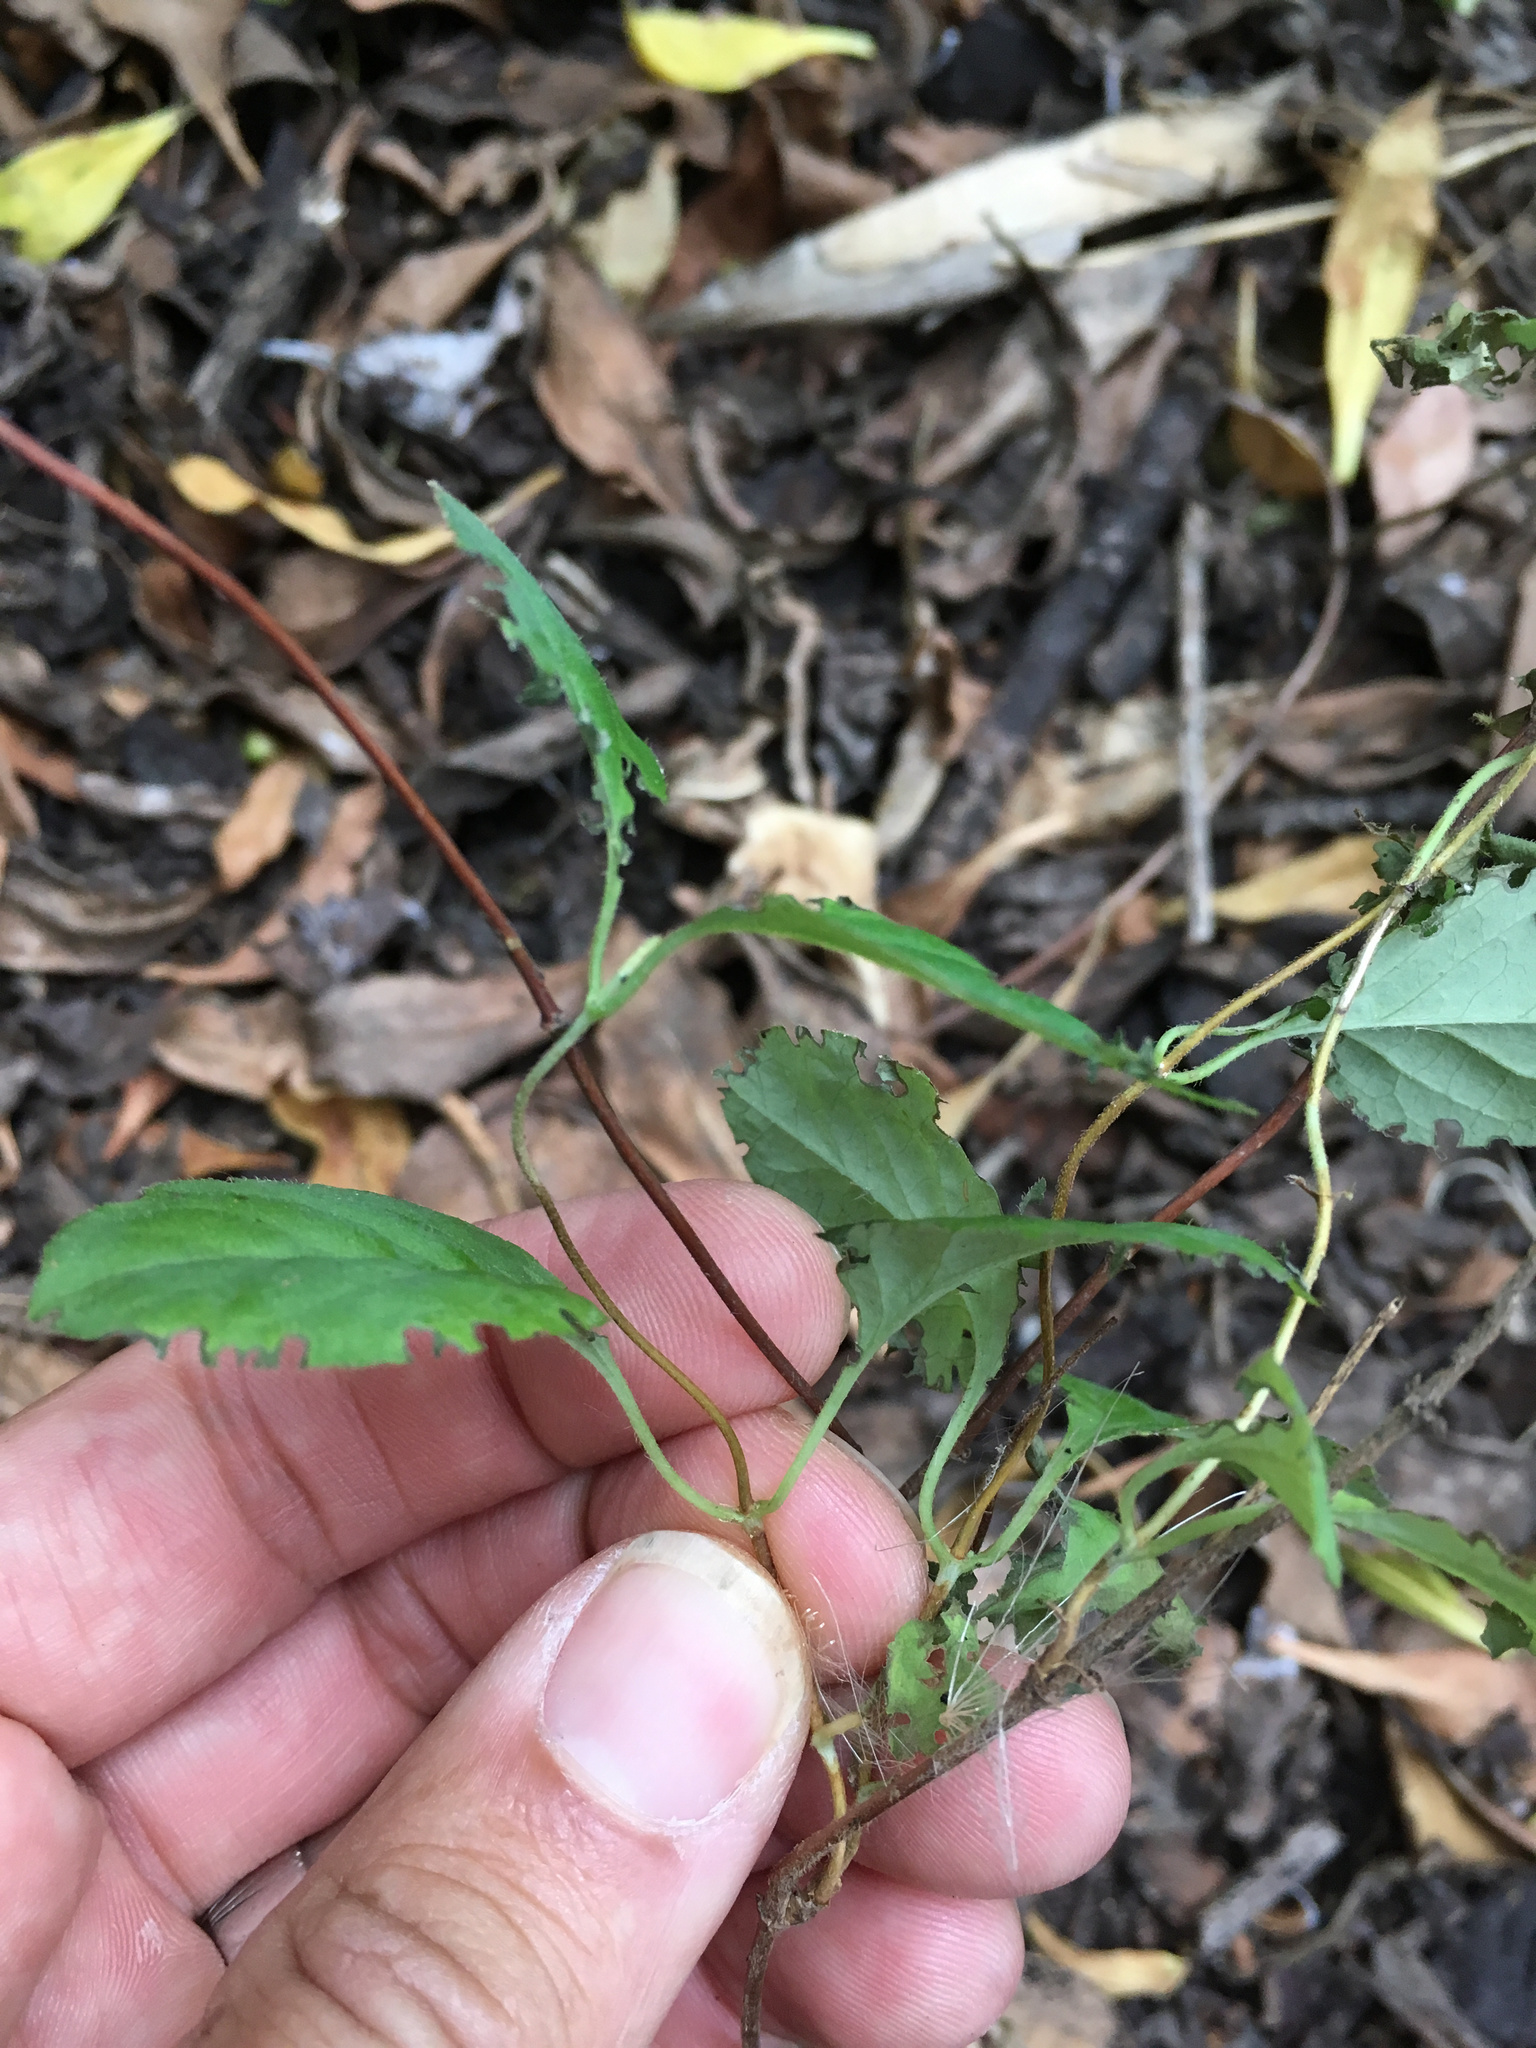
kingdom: Plantae
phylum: Tracheophyta
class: Magnoliopsida
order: Dipsacales
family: Caprifoliaceae
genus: Lonicera
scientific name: Lonicera japonica
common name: Japanese honeysuckle
